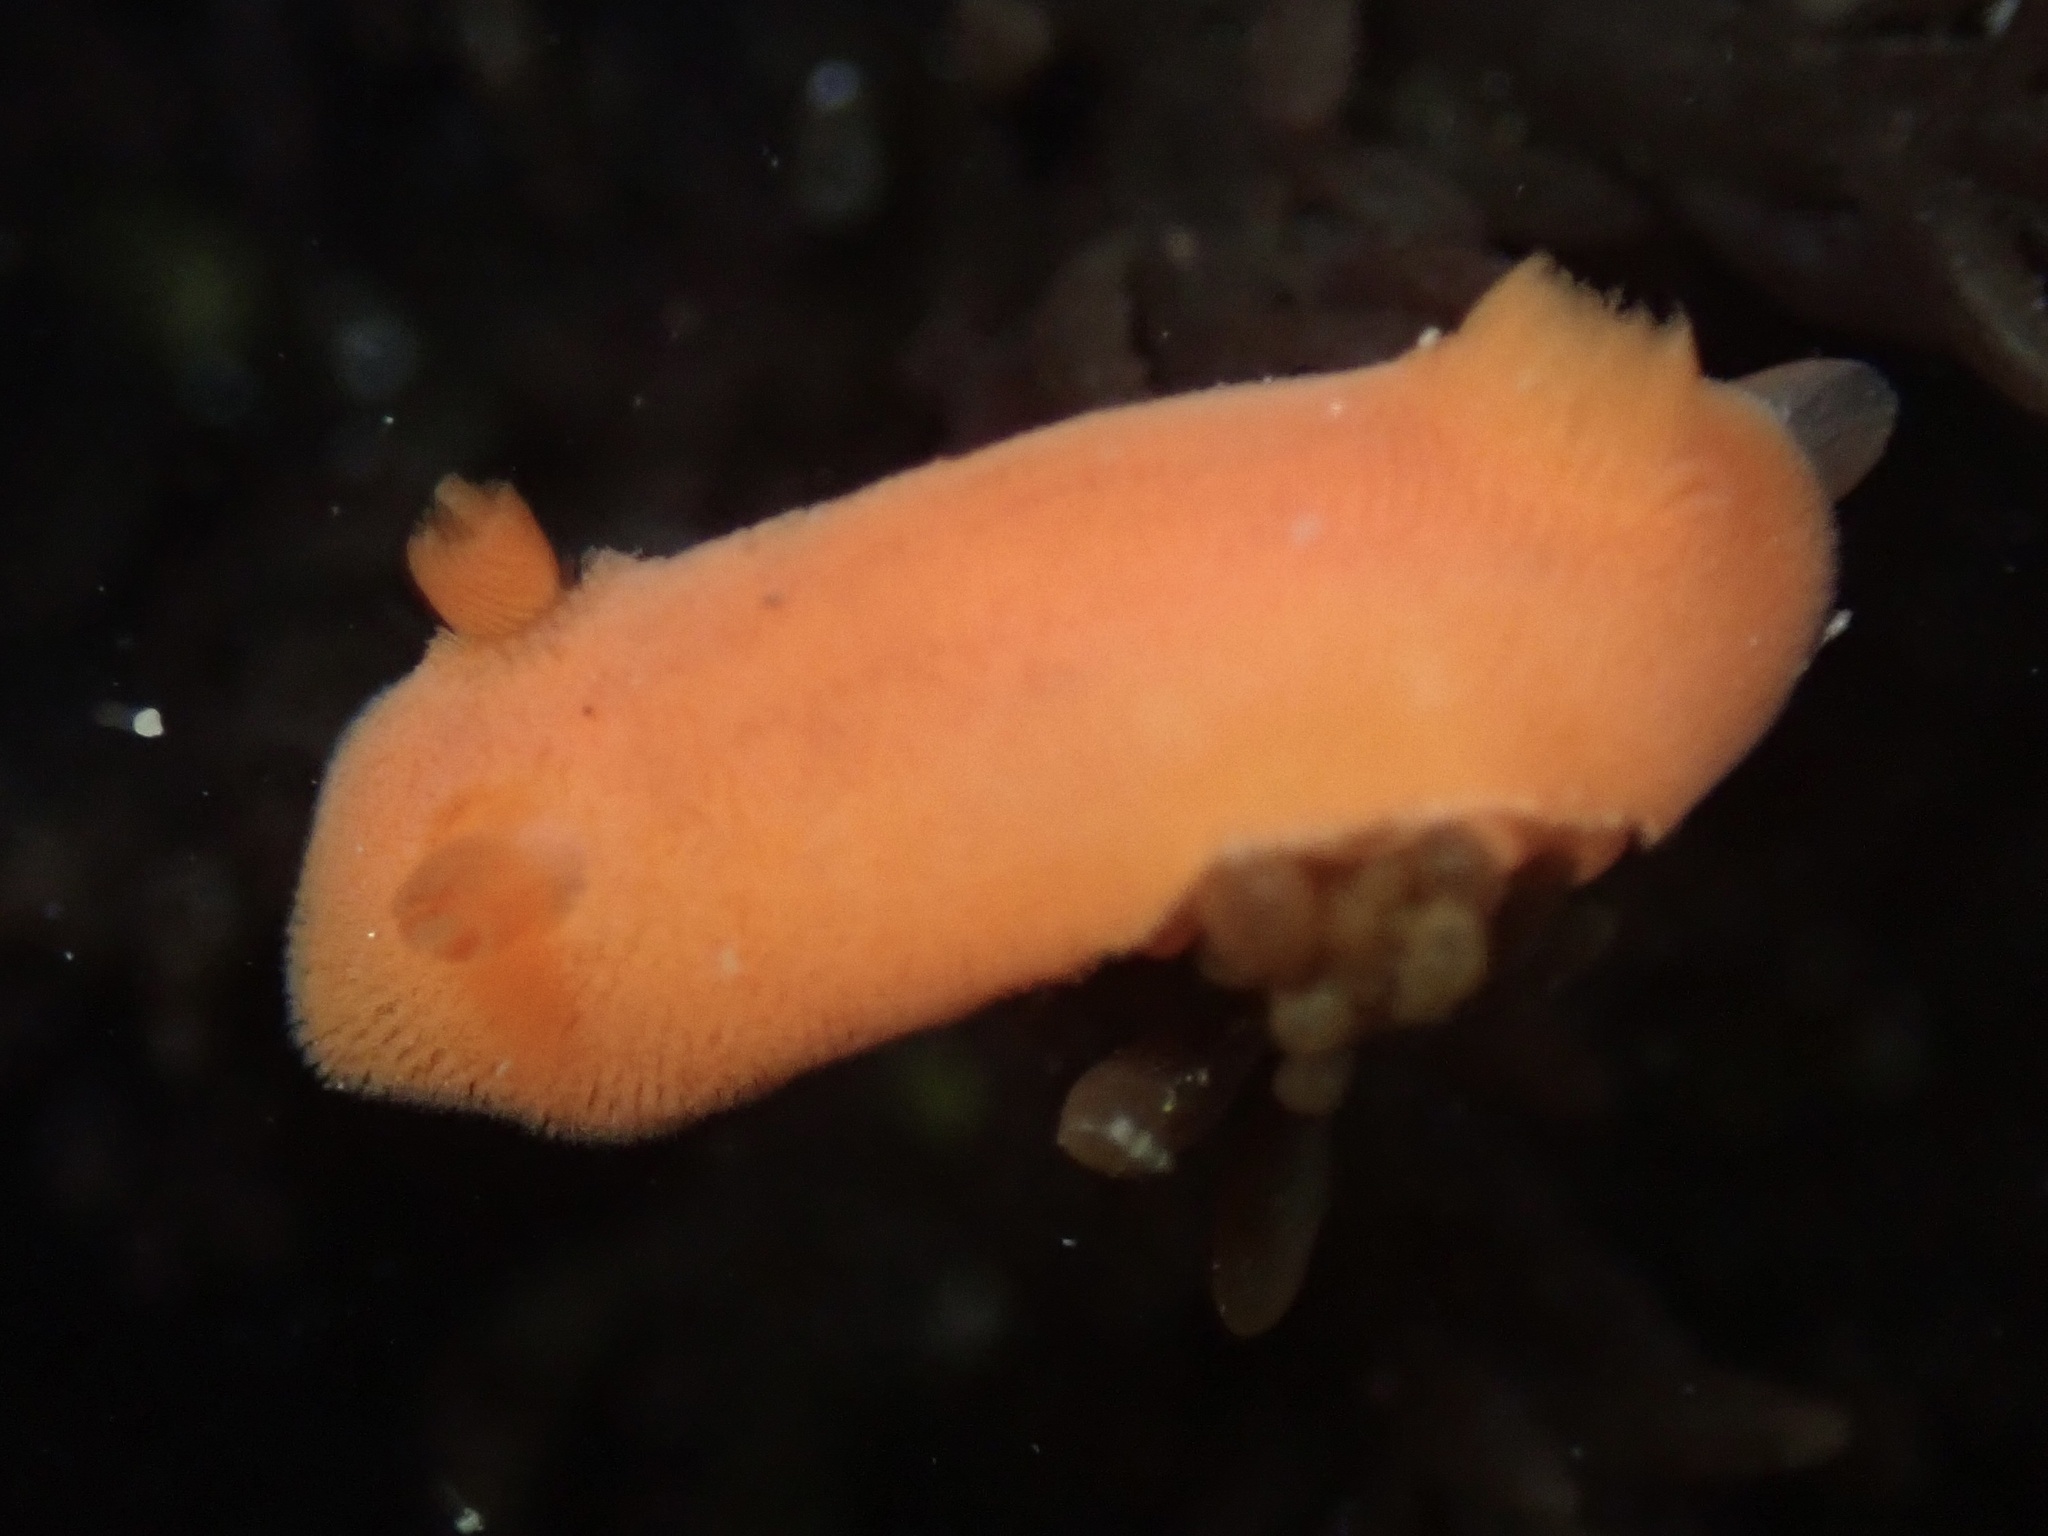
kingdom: Animalia
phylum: Mollusca
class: Gastropoda
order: Nudibranchia
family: Discodorididae
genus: Rostanga
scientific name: Rostanga pulchra
